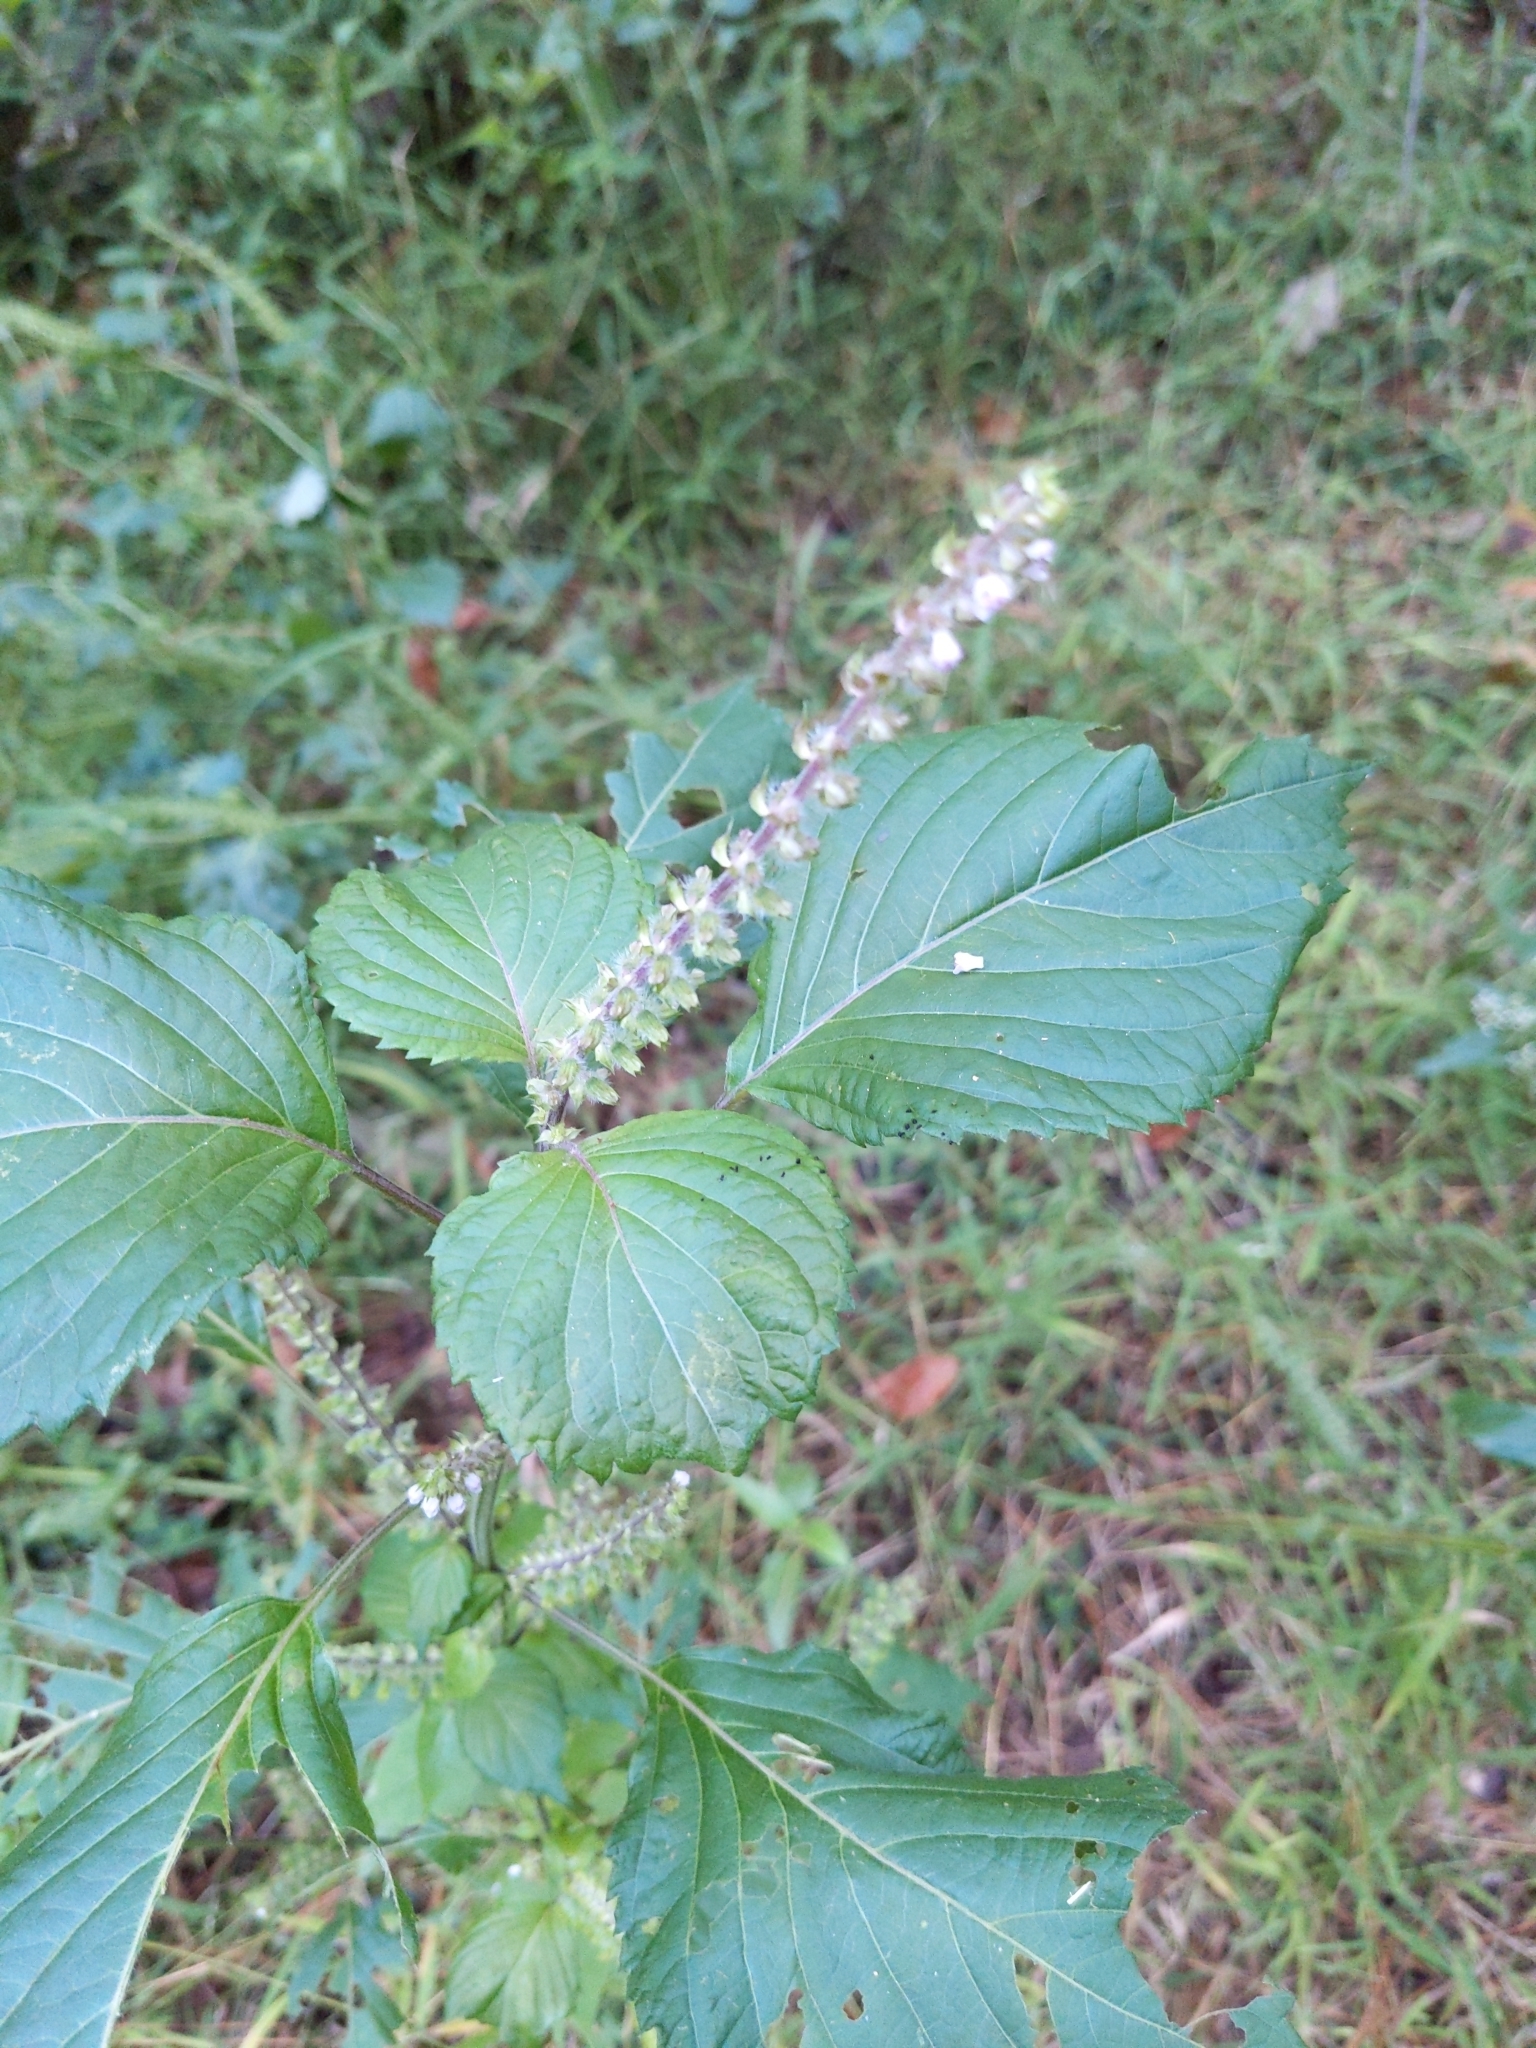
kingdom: Plantae
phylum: Tracheophyta
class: Magnoliopsida
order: Lamiales
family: Lamiaceae
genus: Perilla
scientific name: Perilla frutescens
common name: Perilla
